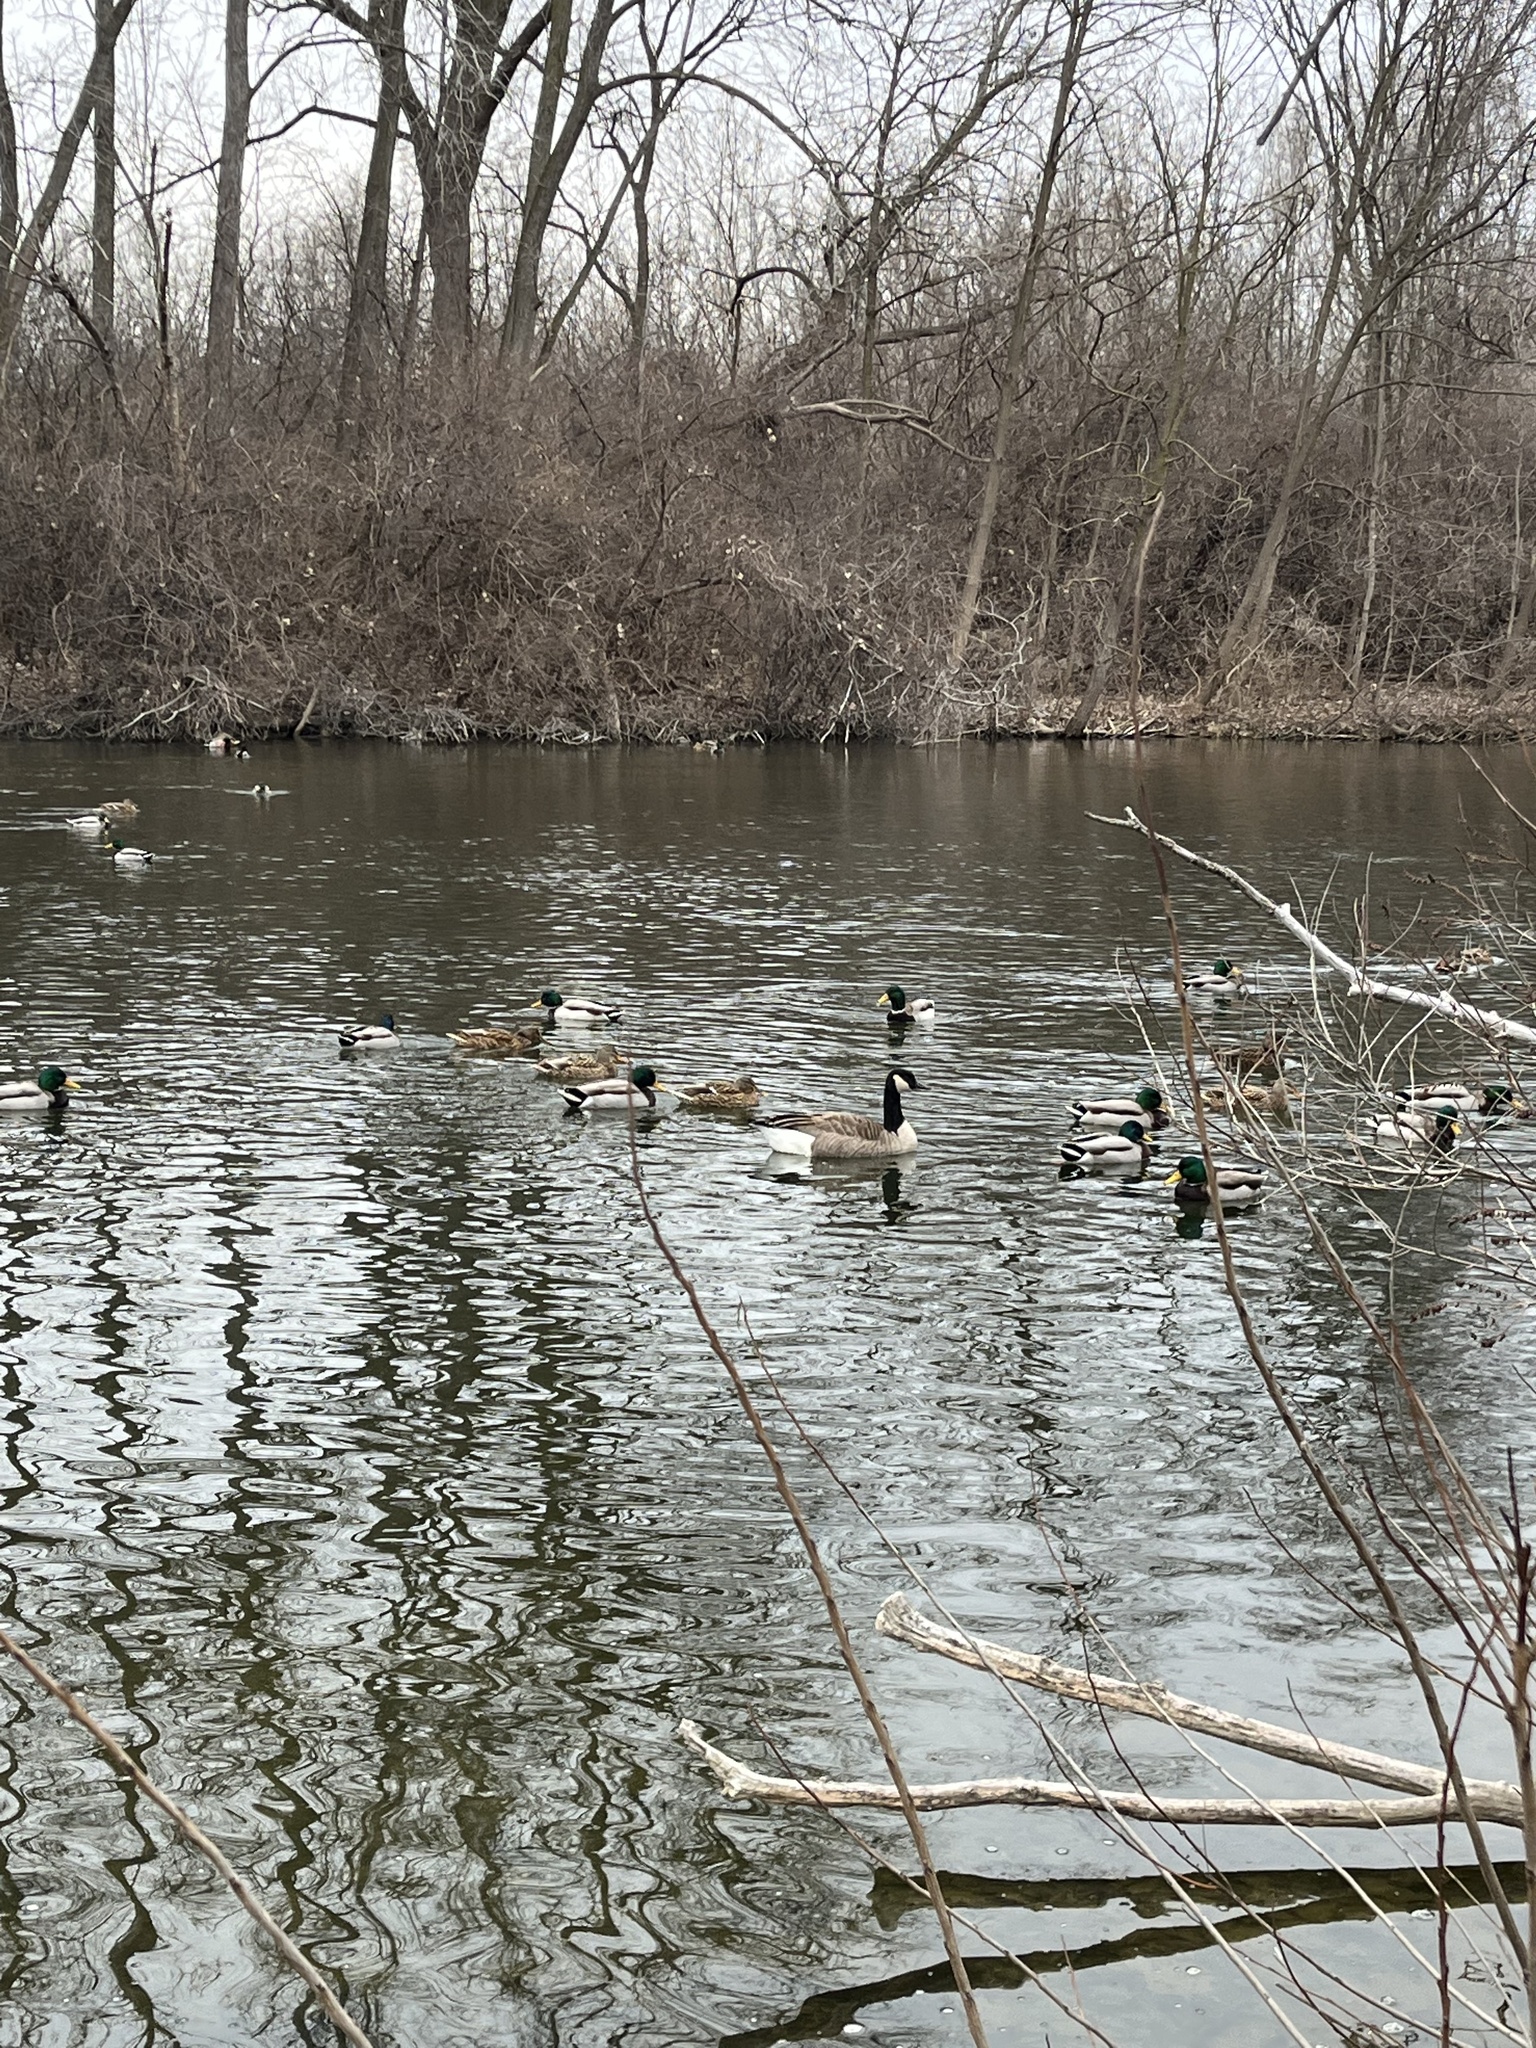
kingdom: Animalia
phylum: Chordata
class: Aves
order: Anseriformes
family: Anatidae
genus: Anas
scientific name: Anas platyrhynchos
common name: Mallard
